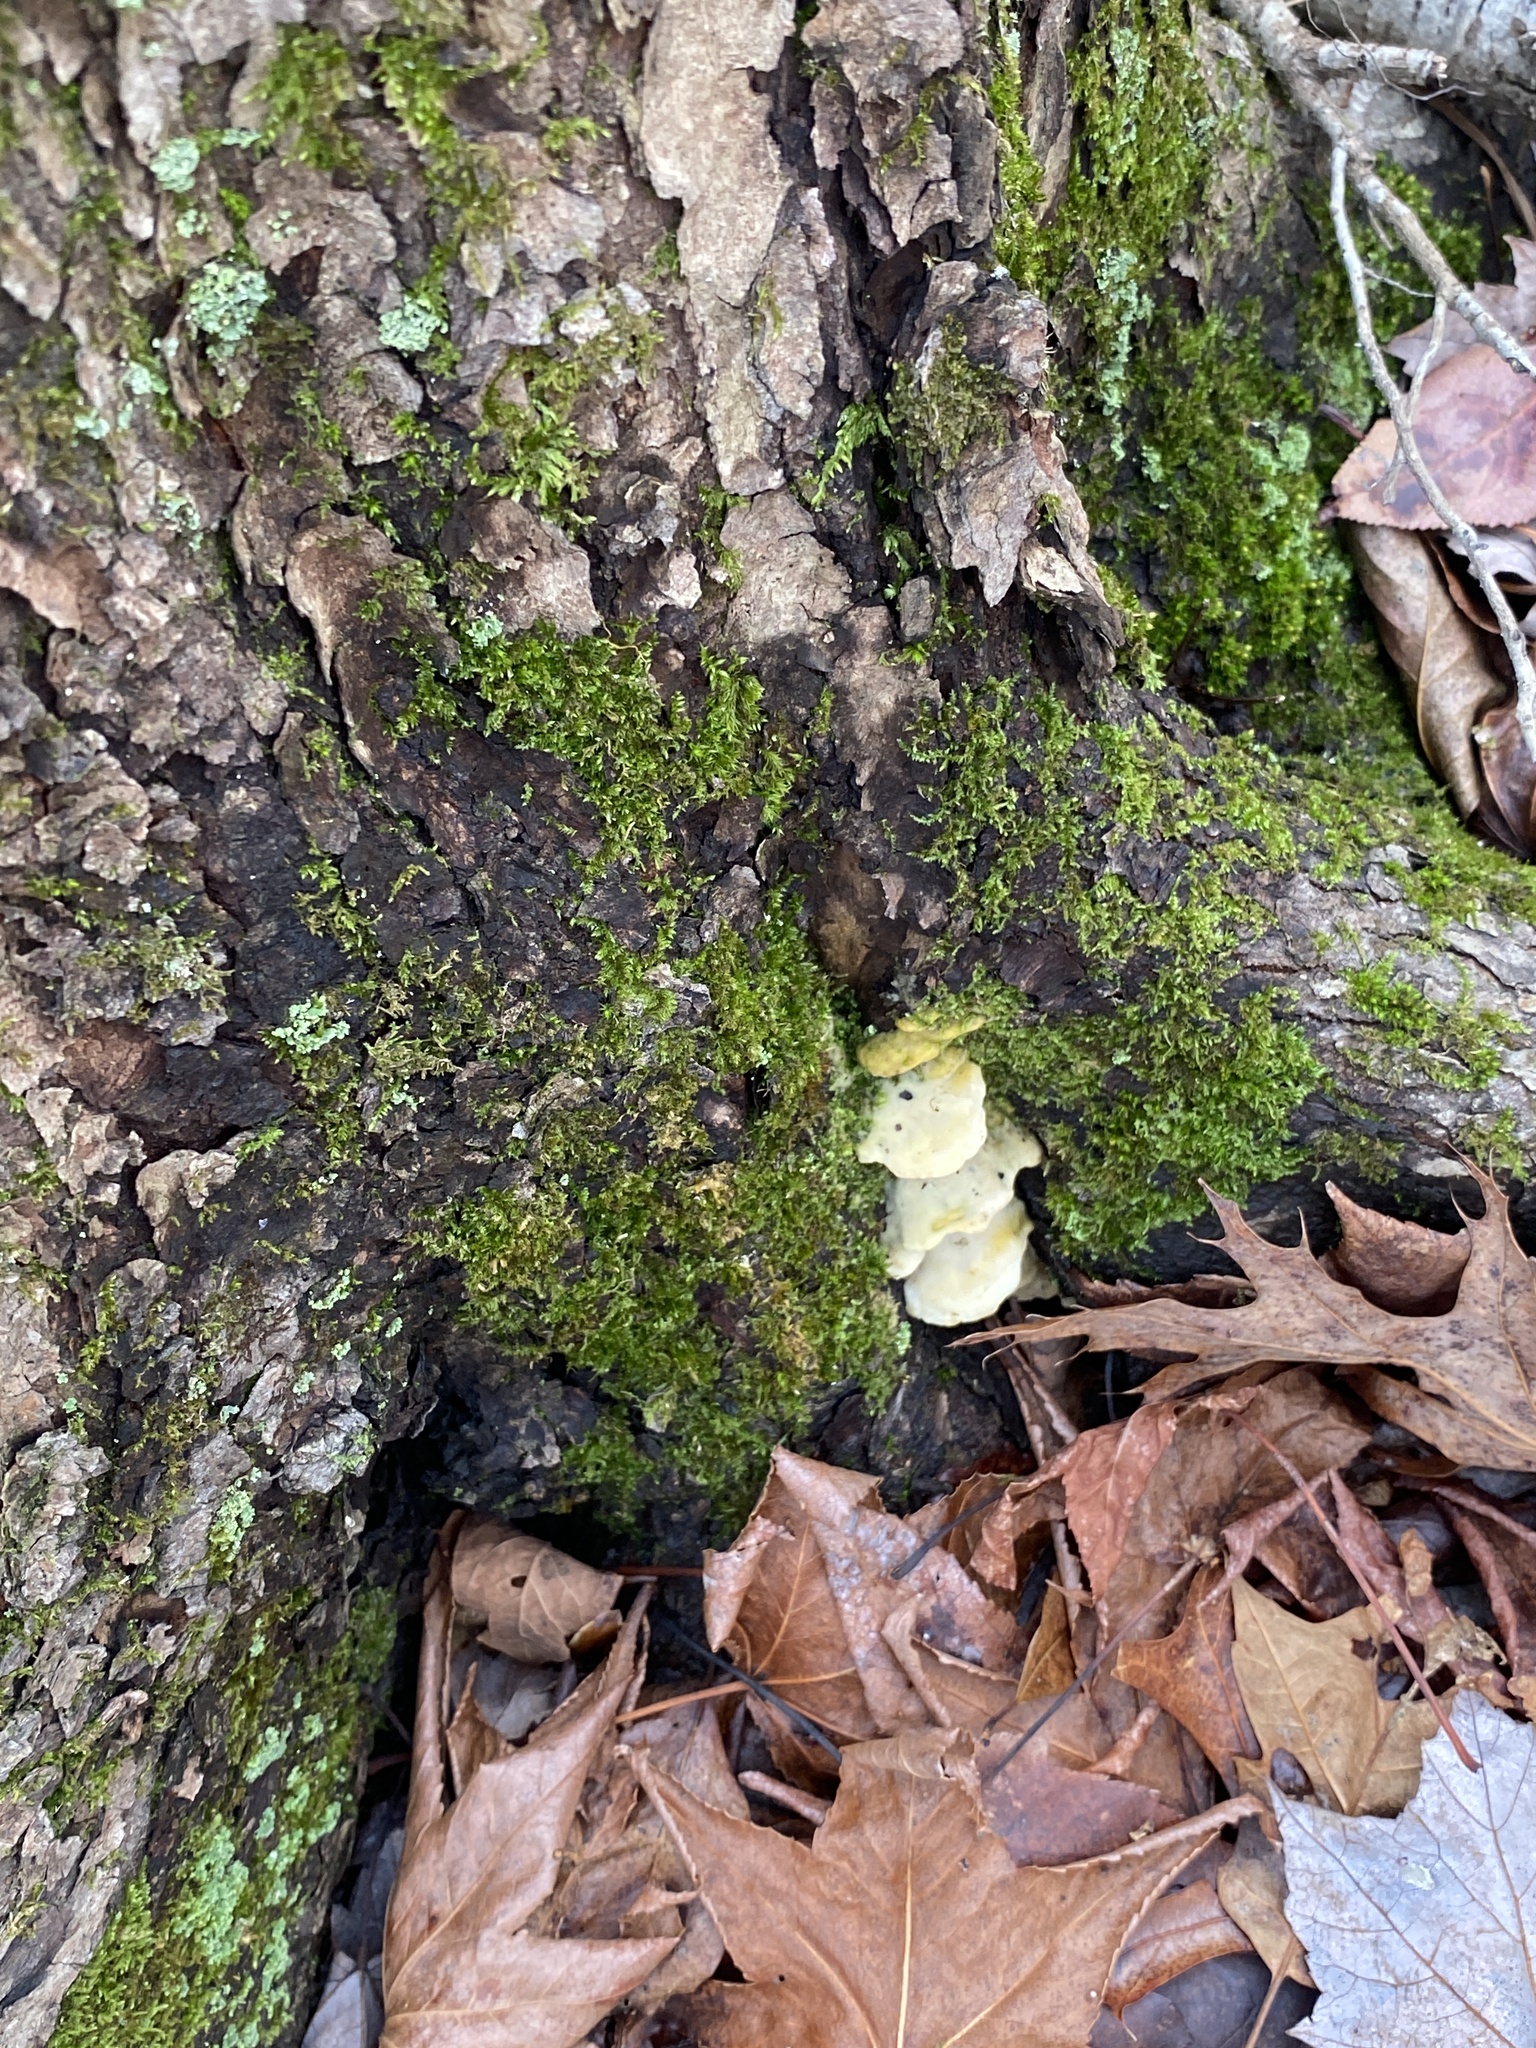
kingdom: Fungi
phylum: Basidiomycota
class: Agaricomycetes
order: Hymenochaetales
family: Oxyporaceae
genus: Oxyporus
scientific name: Oxyporus populinus
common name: Poplar bracket
